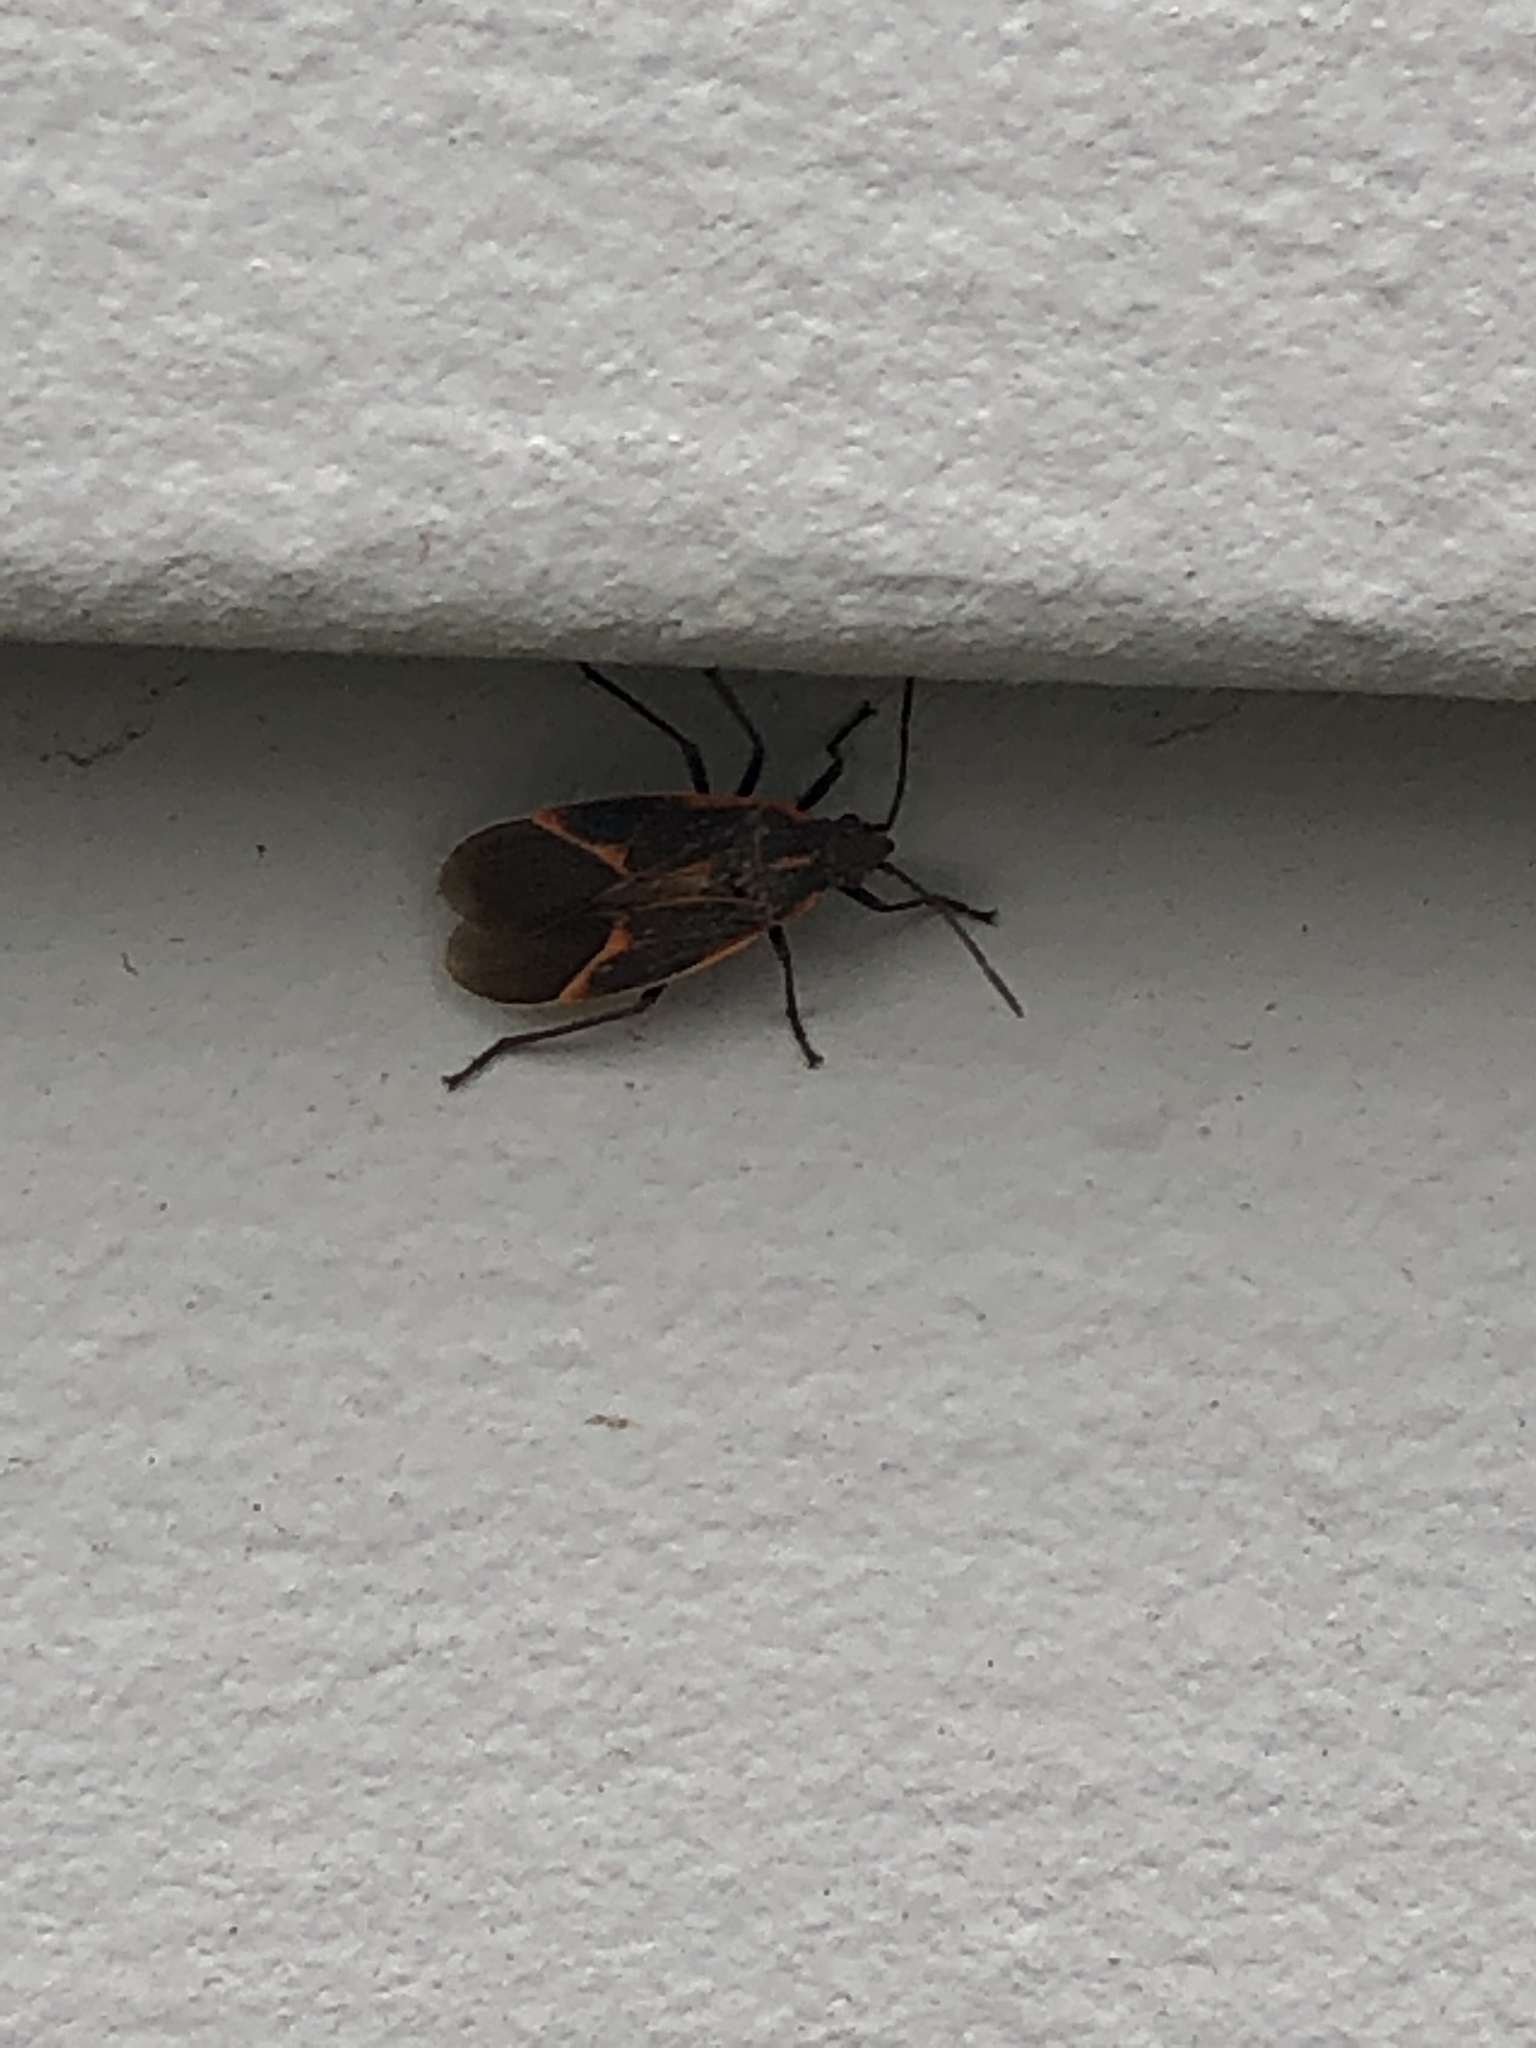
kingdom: Animalia
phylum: Arthropoda
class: Insecta
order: Hemiptera
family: Rhopalidae
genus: Boisea
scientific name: Boisea trivittata
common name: Boxelder bug
